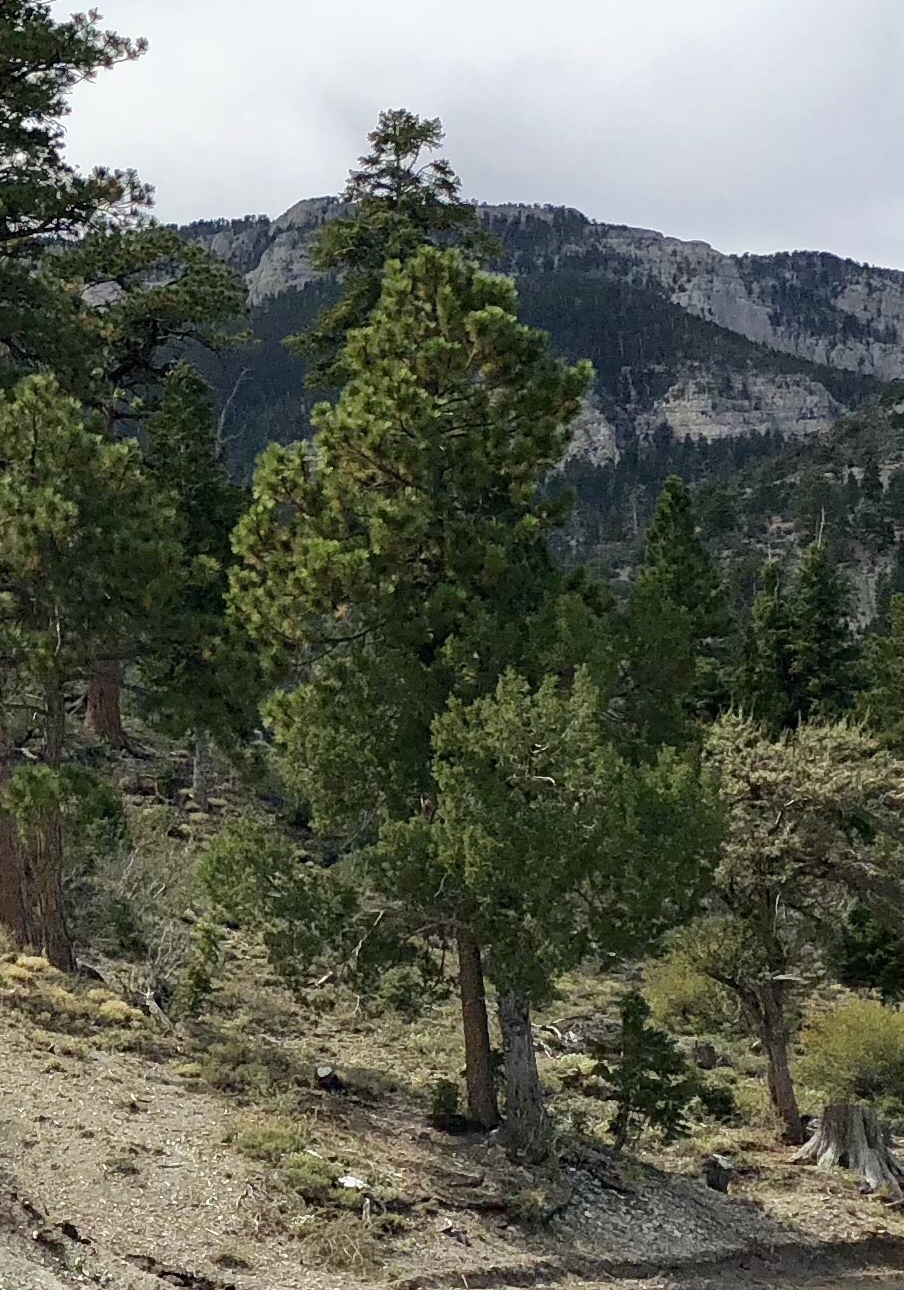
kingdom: Plantae
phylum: Tracheophyta
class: Pinopsida
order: Pinales
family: Pinaceae
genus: Pinus
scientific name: Pinus ponderosa
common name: Western yellow-pine
